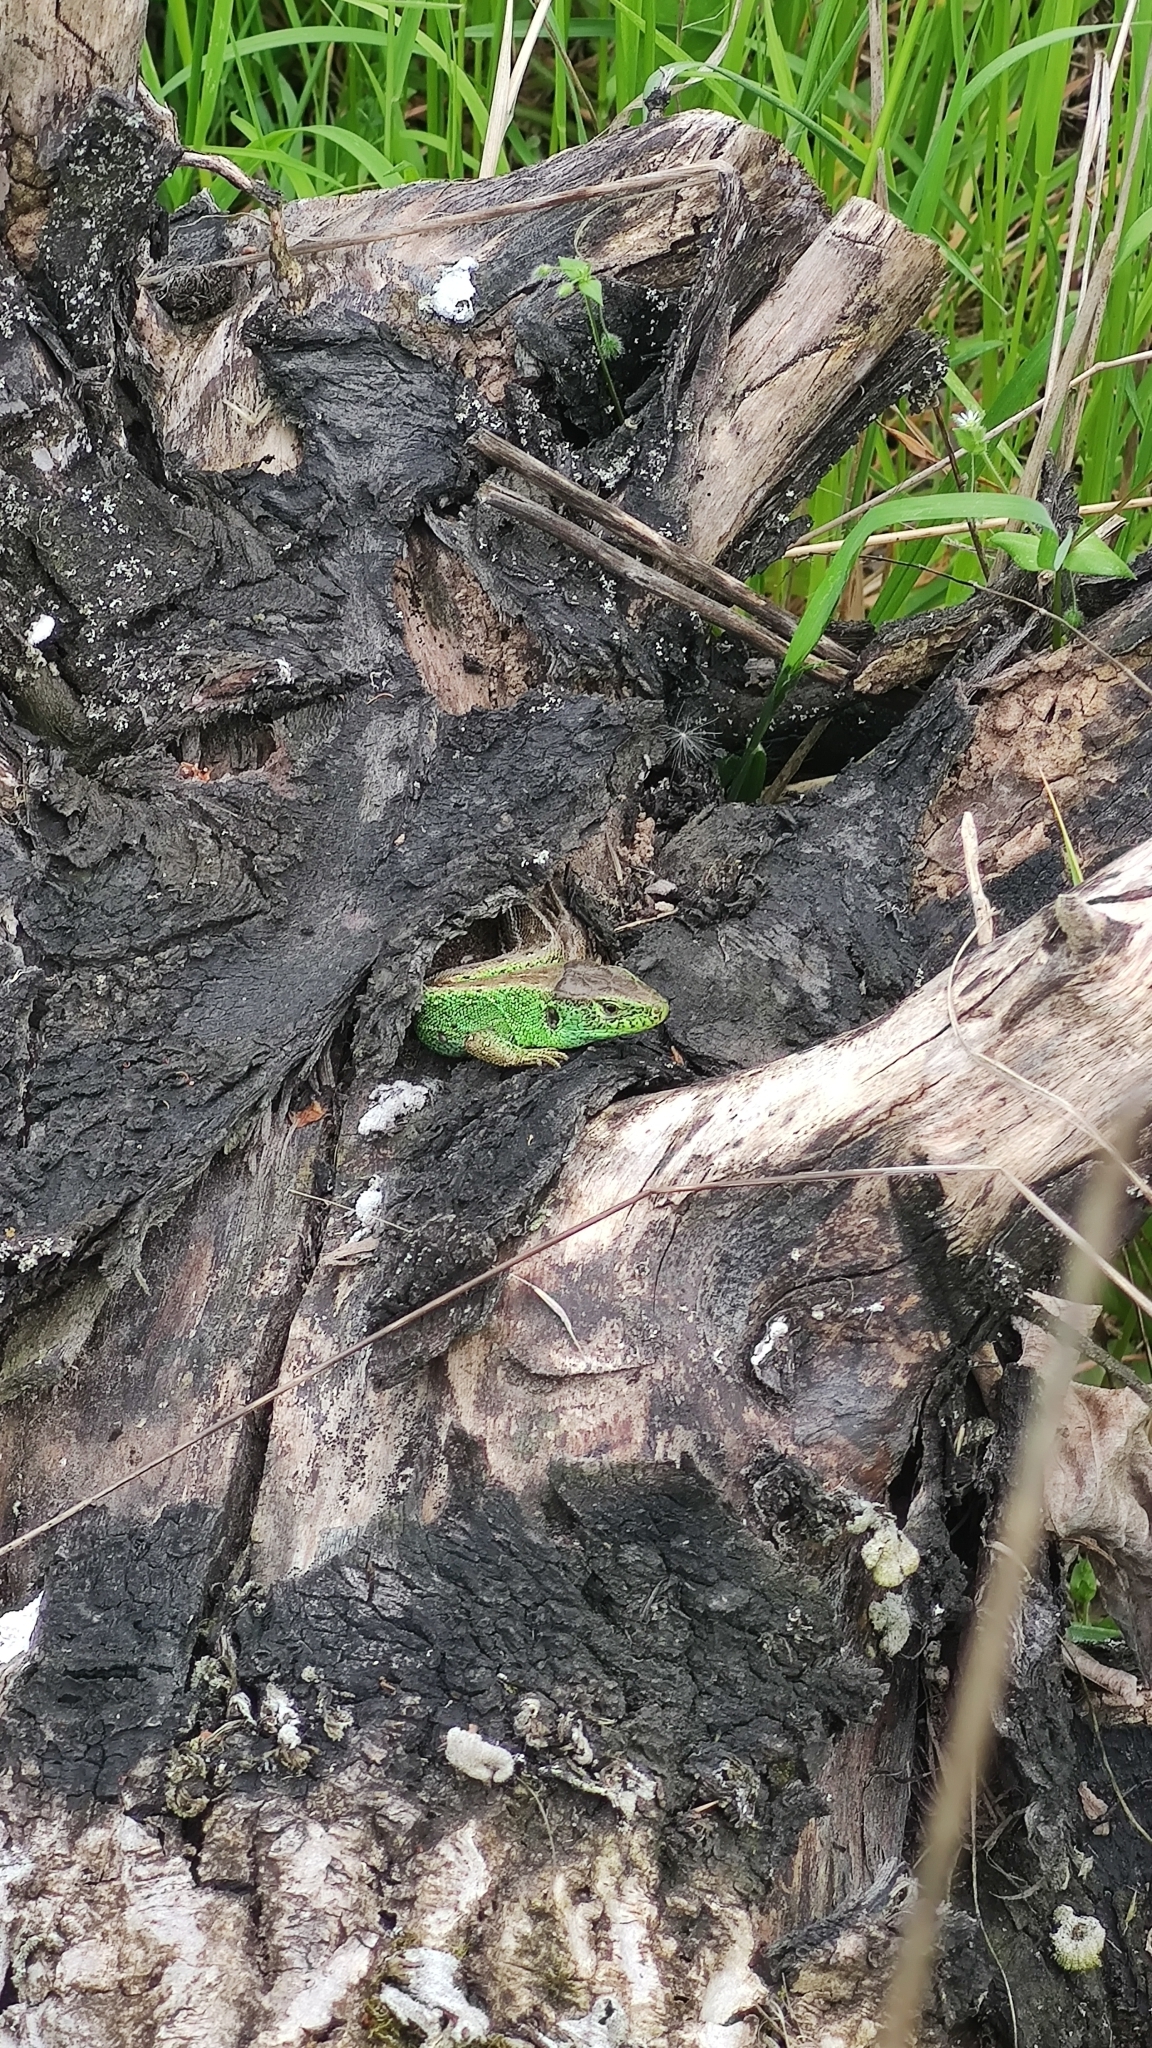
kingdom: Animalia
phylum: Chordata
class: Squamata
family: Lacertidae
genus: Lacerta
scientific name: Lacerta agilis
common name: Sand lizard
